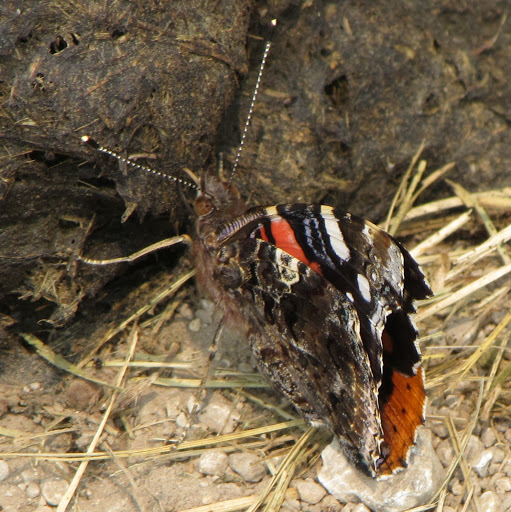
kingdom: Animalia
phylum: Arthropoda
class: Insecta
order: Lepidoptera
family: Nymphalidae
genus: Vanessa
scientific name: Vanessa atalanta
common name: Red admiral
